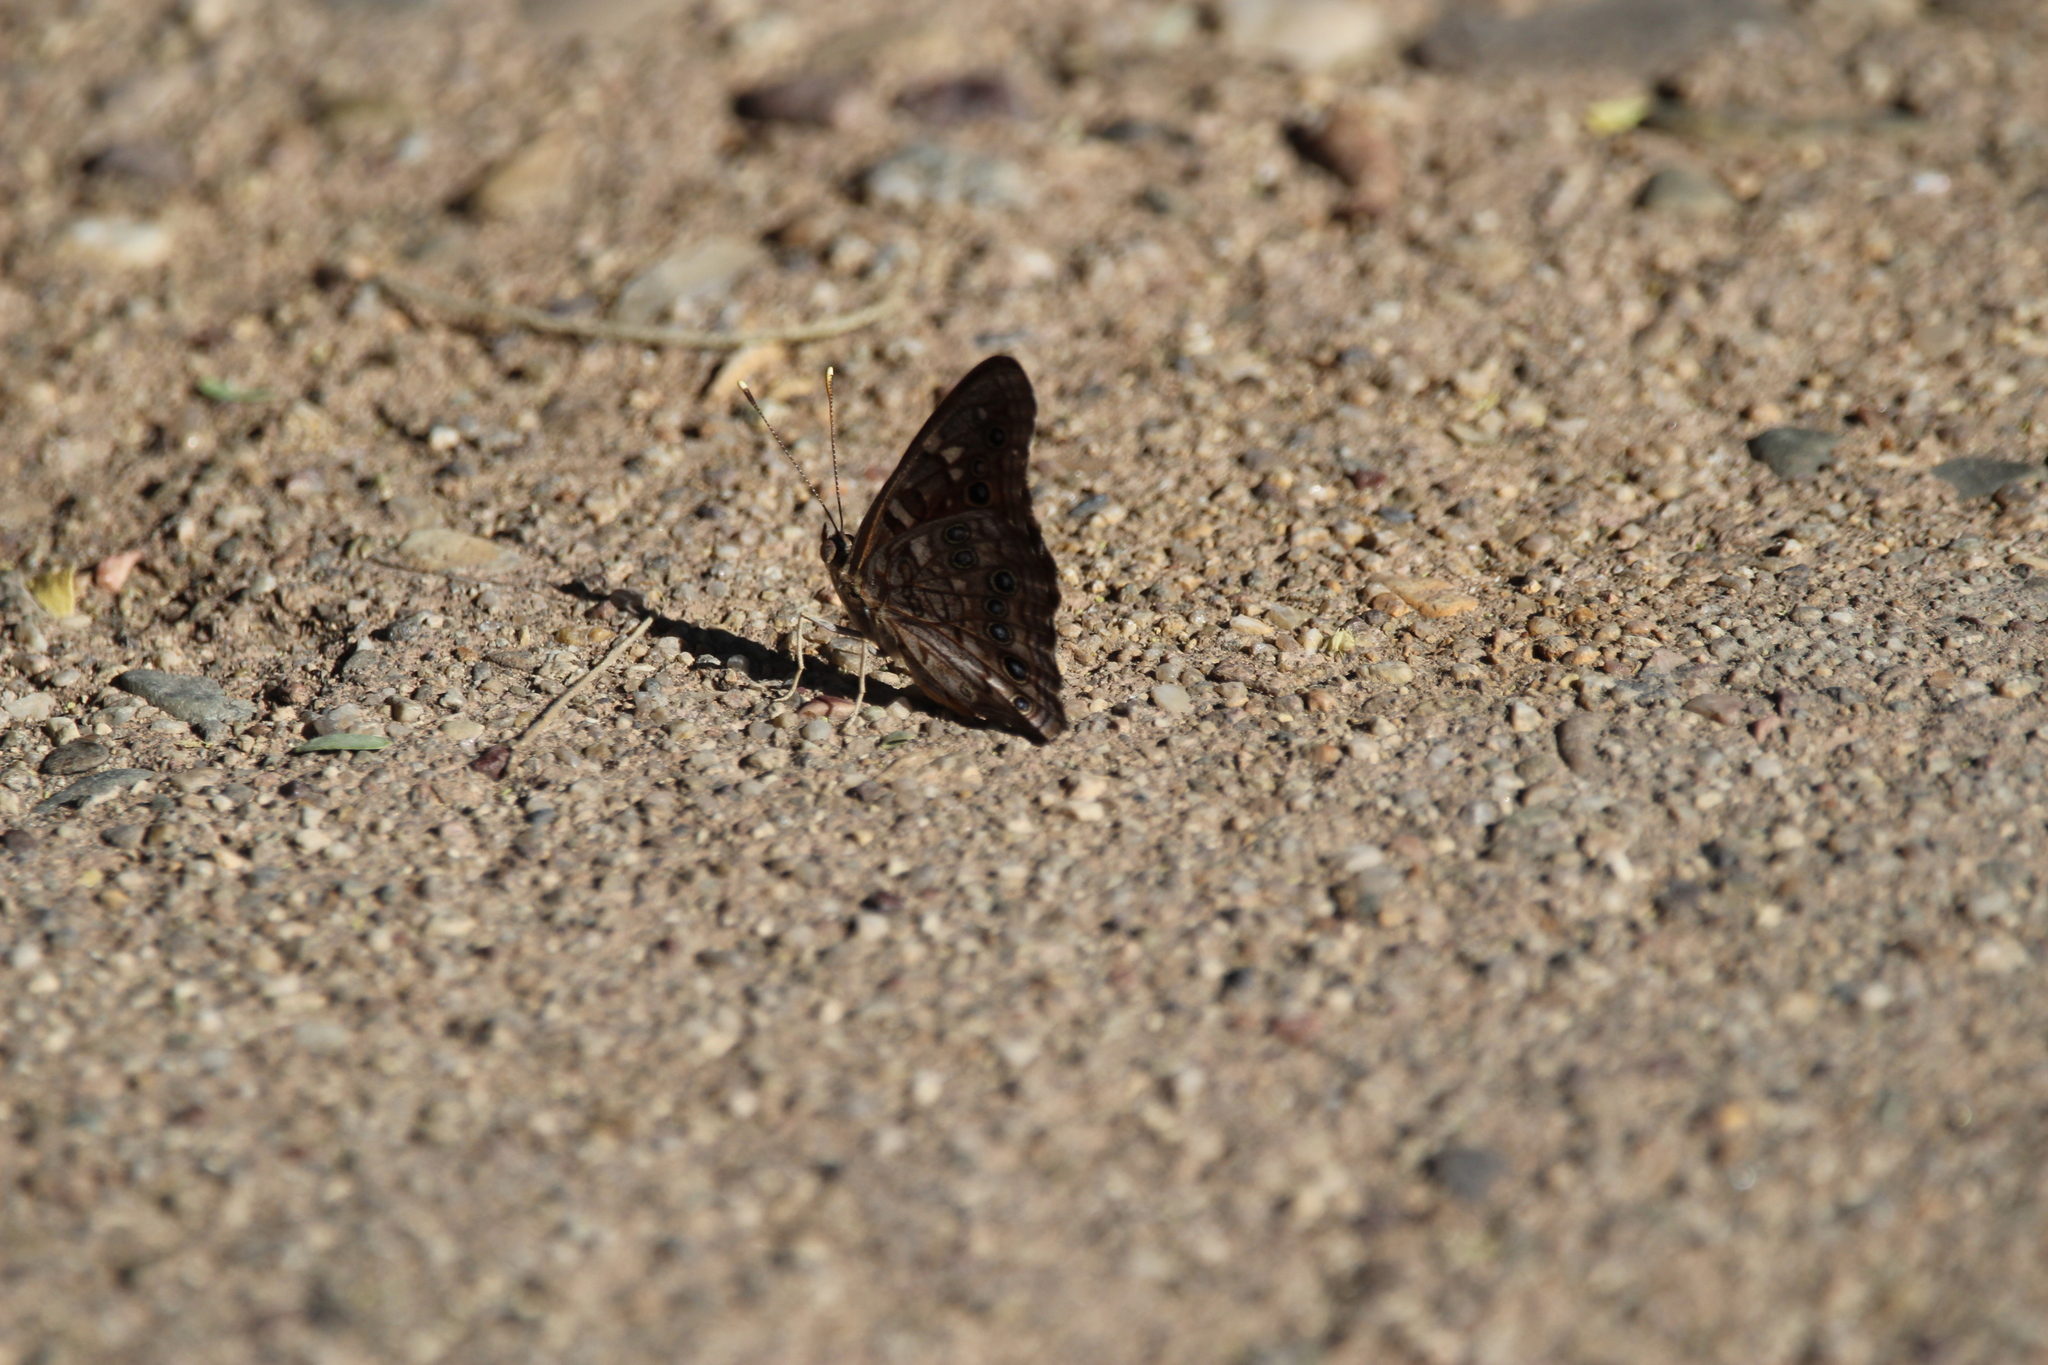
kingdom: Animalia
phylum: Arthropoda
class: Insecta
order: Lepidoptera
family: Nymphalidae
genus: Asterocampa
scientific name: Asterocampa leilia
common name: Empress leilia
